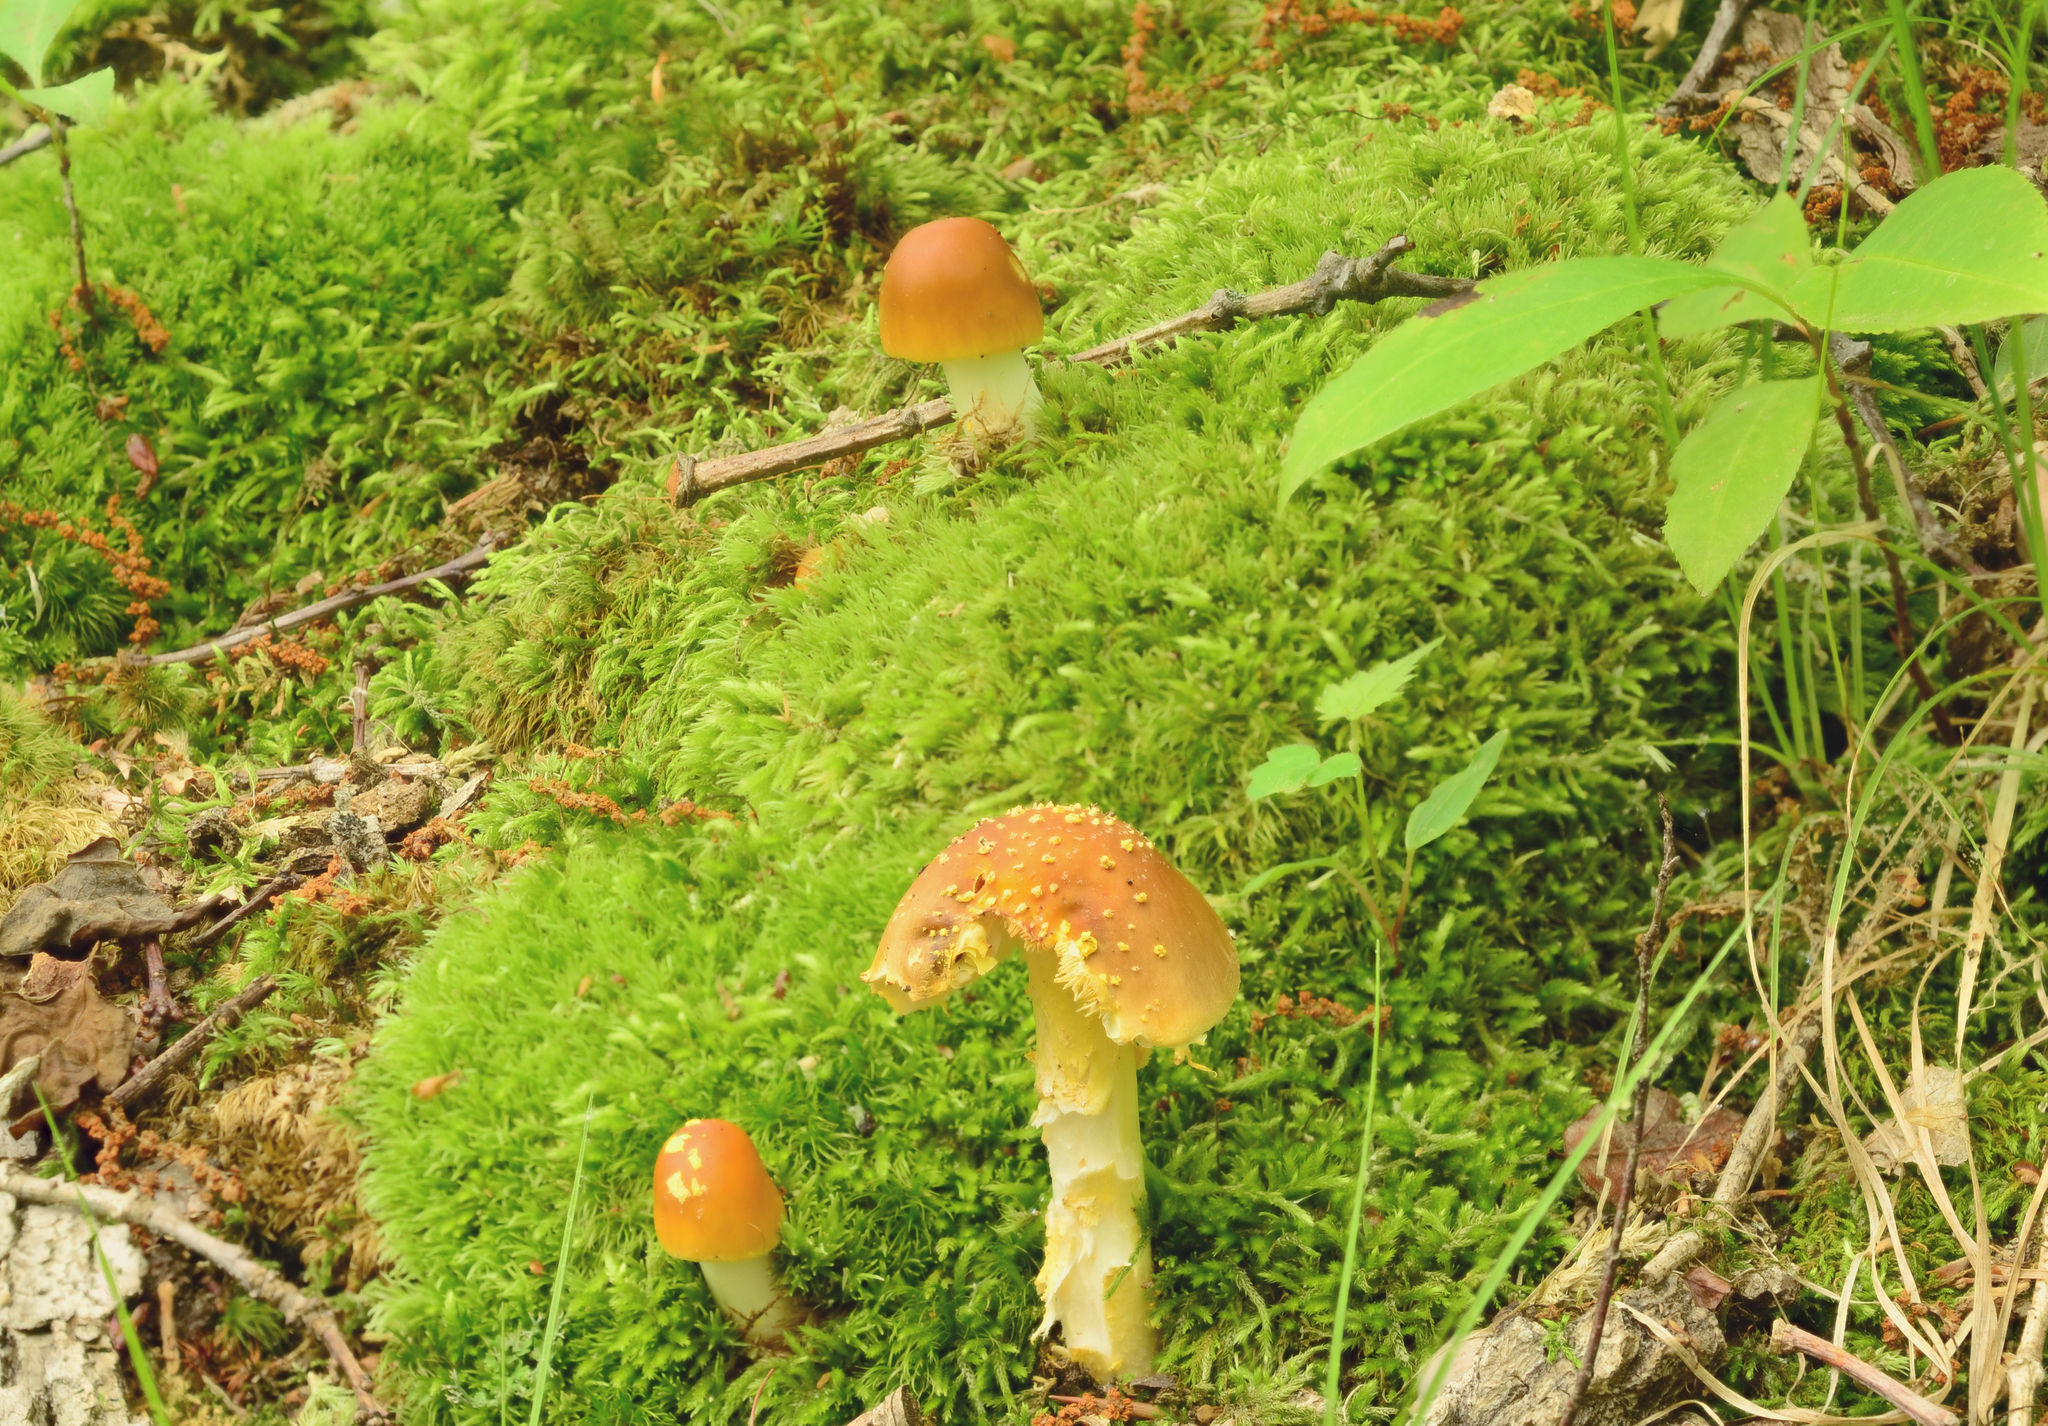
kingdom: Fungi
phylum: Basidiomycota
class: Agaricomycetes
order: Agaricales
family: Amanitaceae
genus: Amanita
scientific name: Amanita flavoconia
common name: Yellow patches
